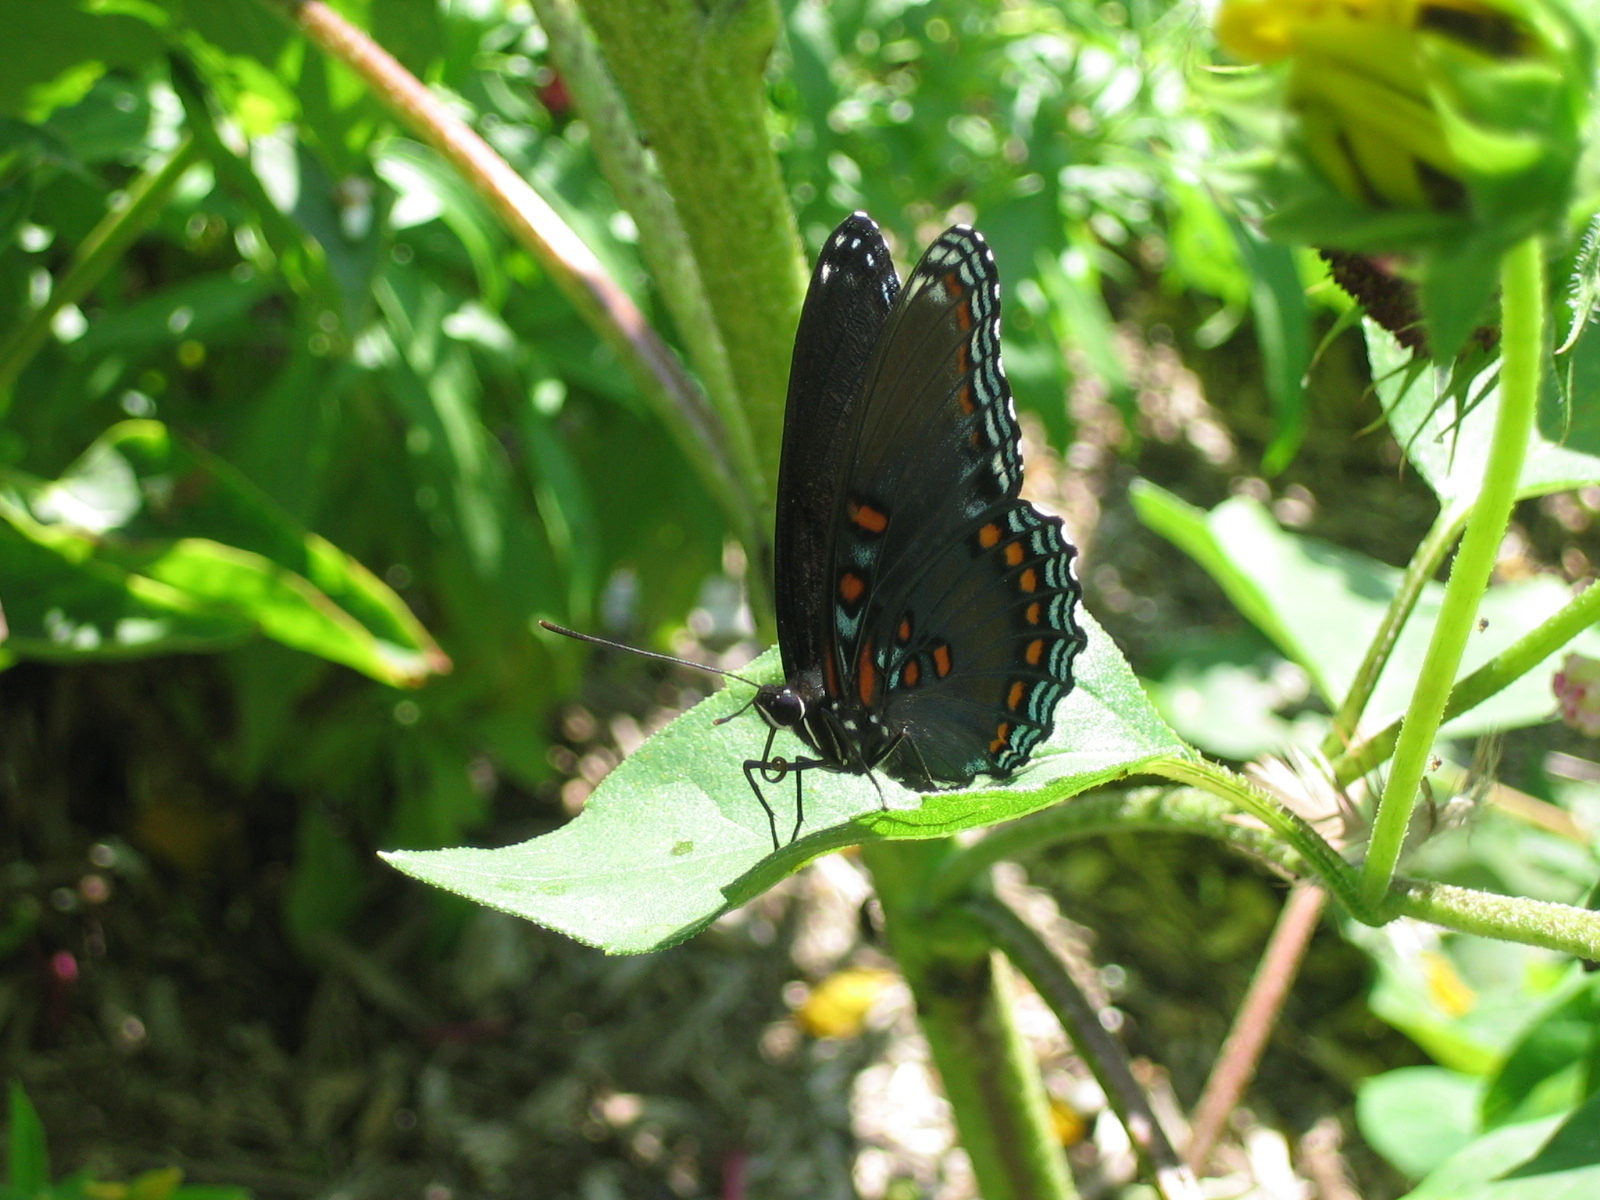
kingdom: Animalia
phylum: Arthropoda
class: Insecta
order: Lepidoptera
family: Nymphalidae
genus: Limenitis
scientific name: Limenitis astyanax
